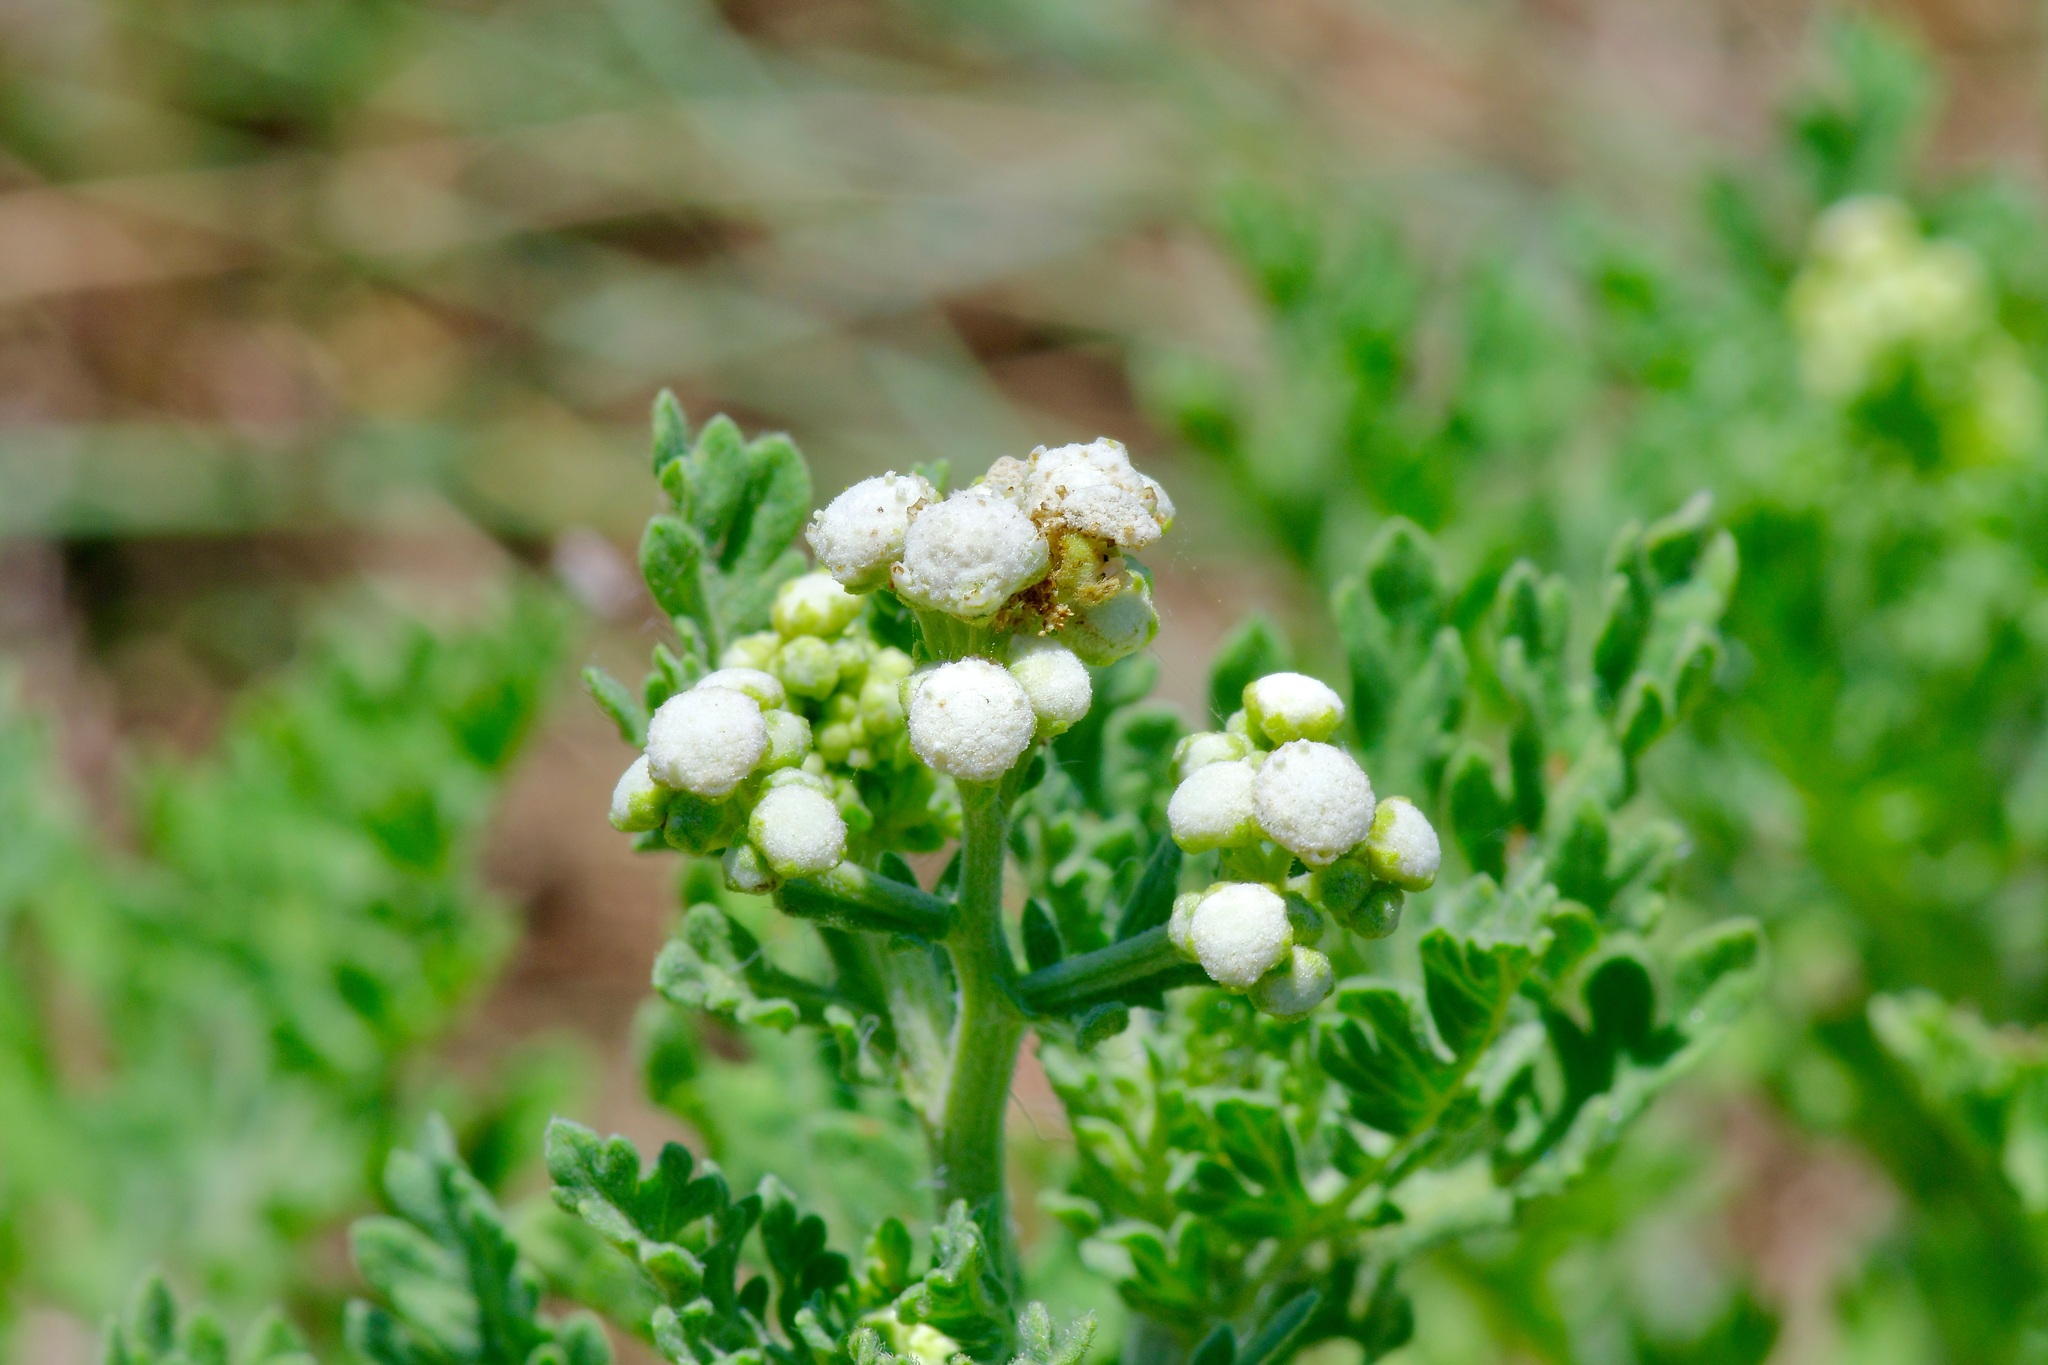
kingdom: Plantae
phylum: Tracheophyta
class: Magnoliopsida
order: Asterales
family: Asteraceae
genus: Parthenium
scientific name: Parthenium confertum
